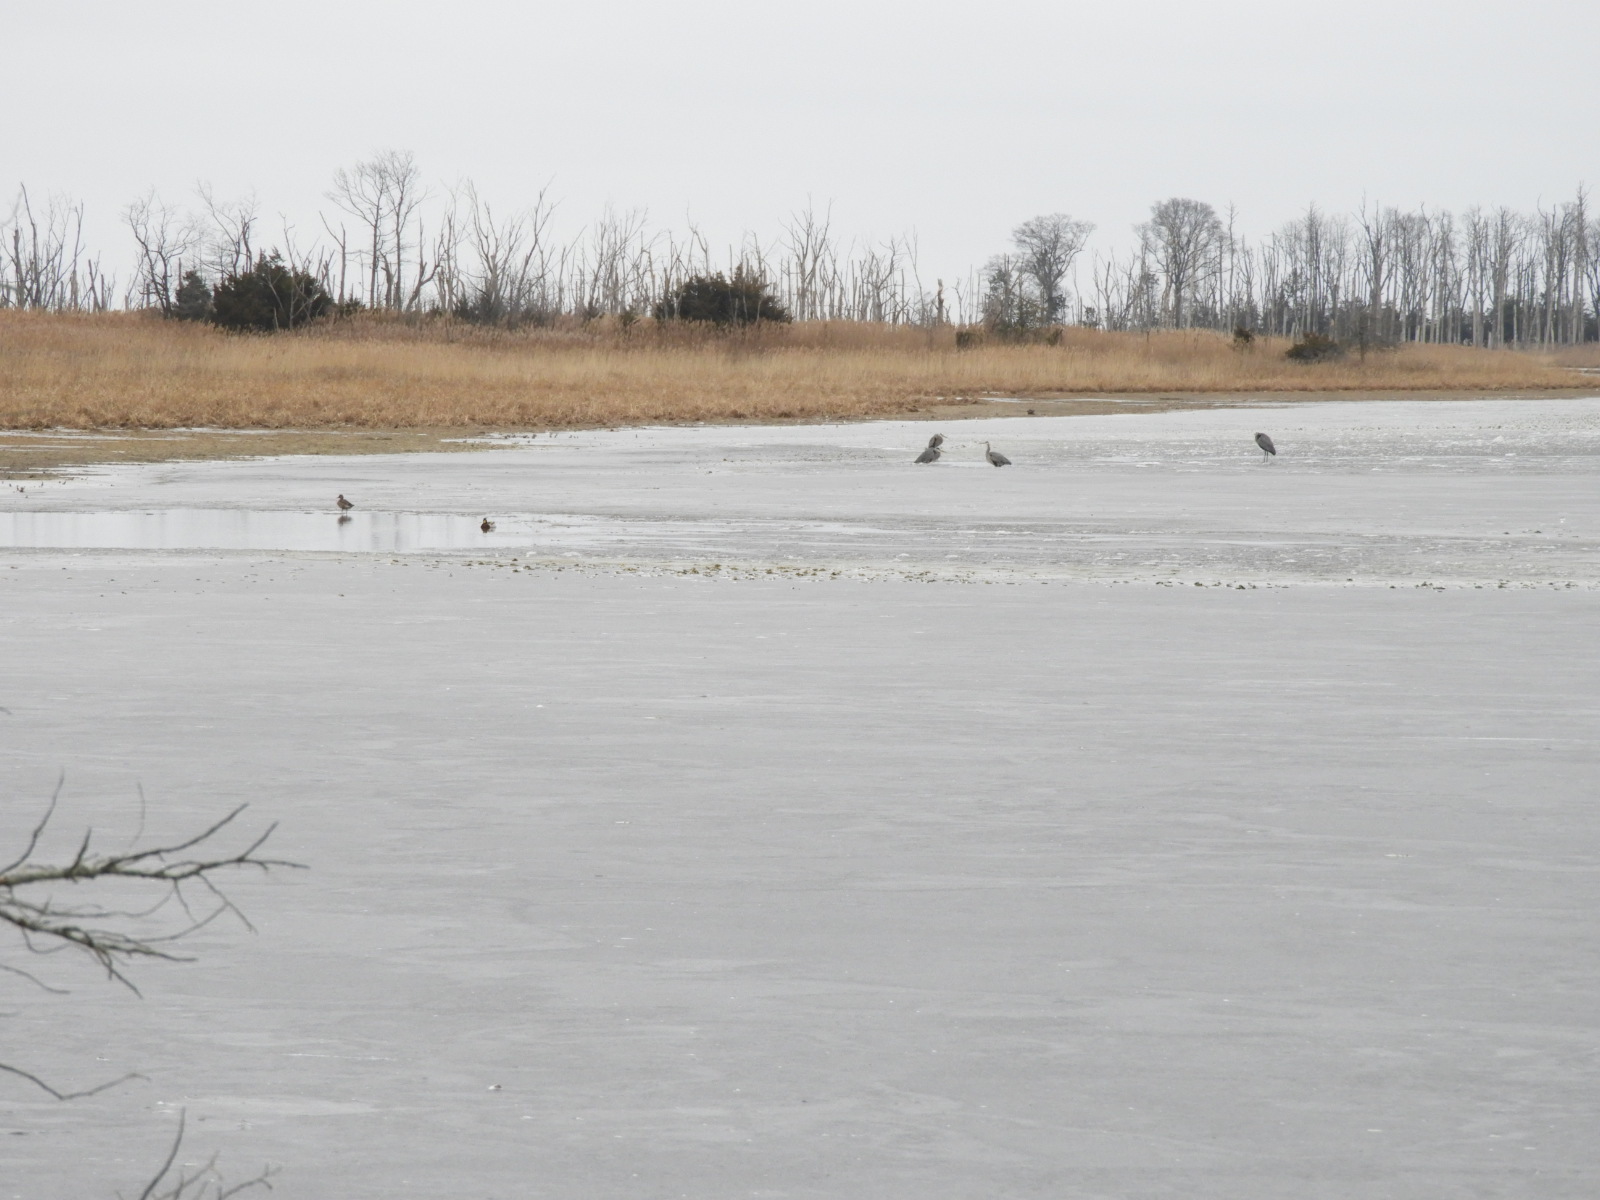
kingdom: Animalia
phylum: Chordata
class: Aves
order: Anseriformes
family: Anatidae
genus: Anas
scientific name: Anas platyrhynchos
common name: Mallard
